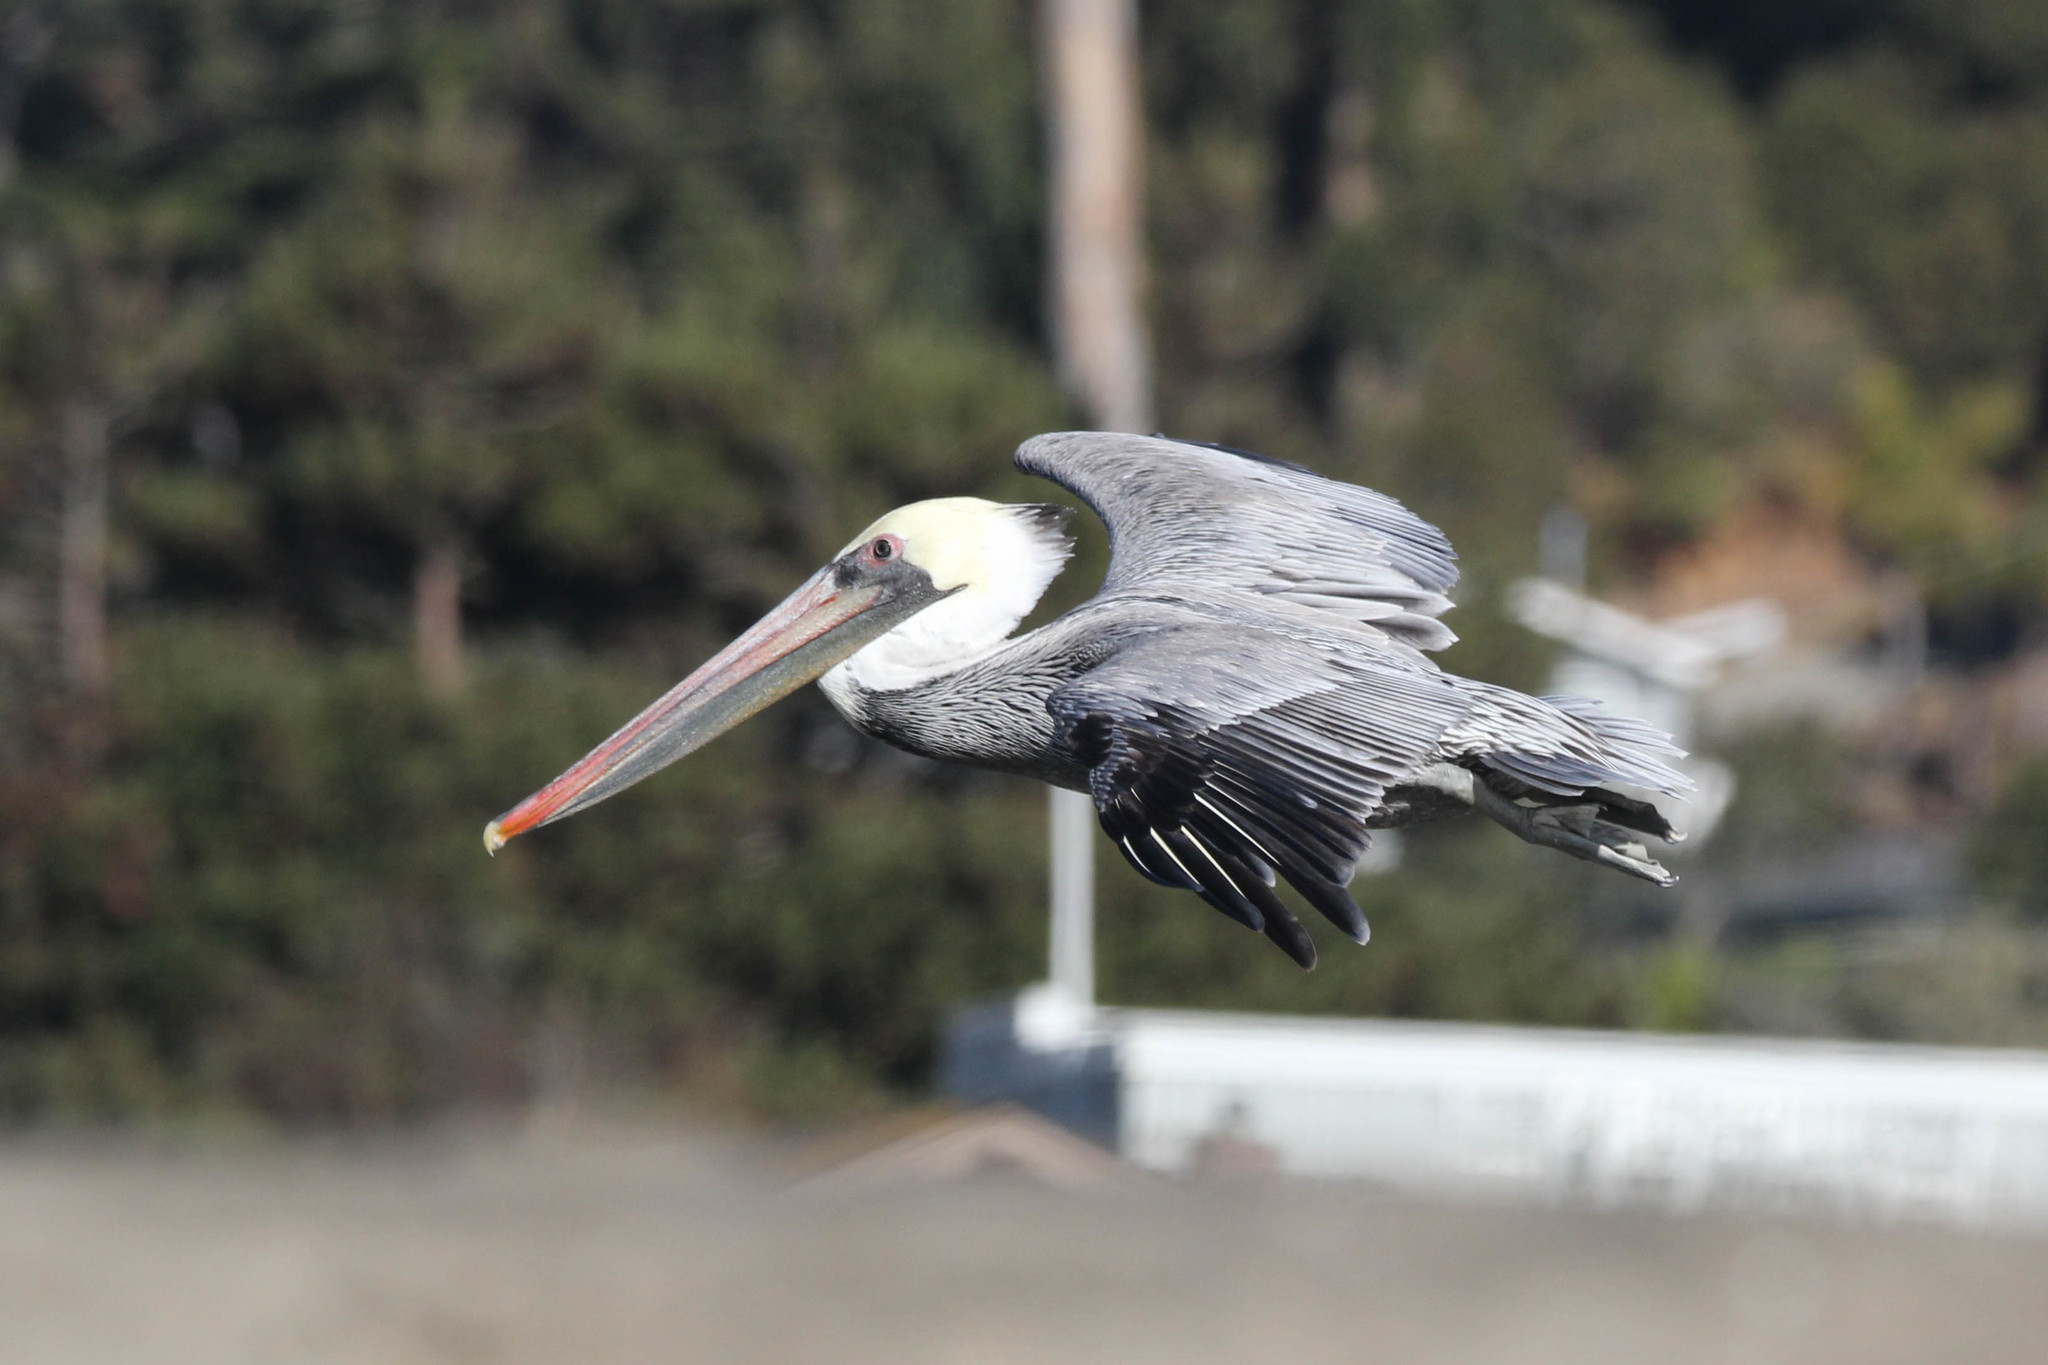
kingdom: Animalia
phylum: Chordata
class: Aves
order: Pelecaniformes
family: Pelecanidae
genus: Pelecanus
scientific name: Pelecanus occidentalis
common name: Brown pelican
